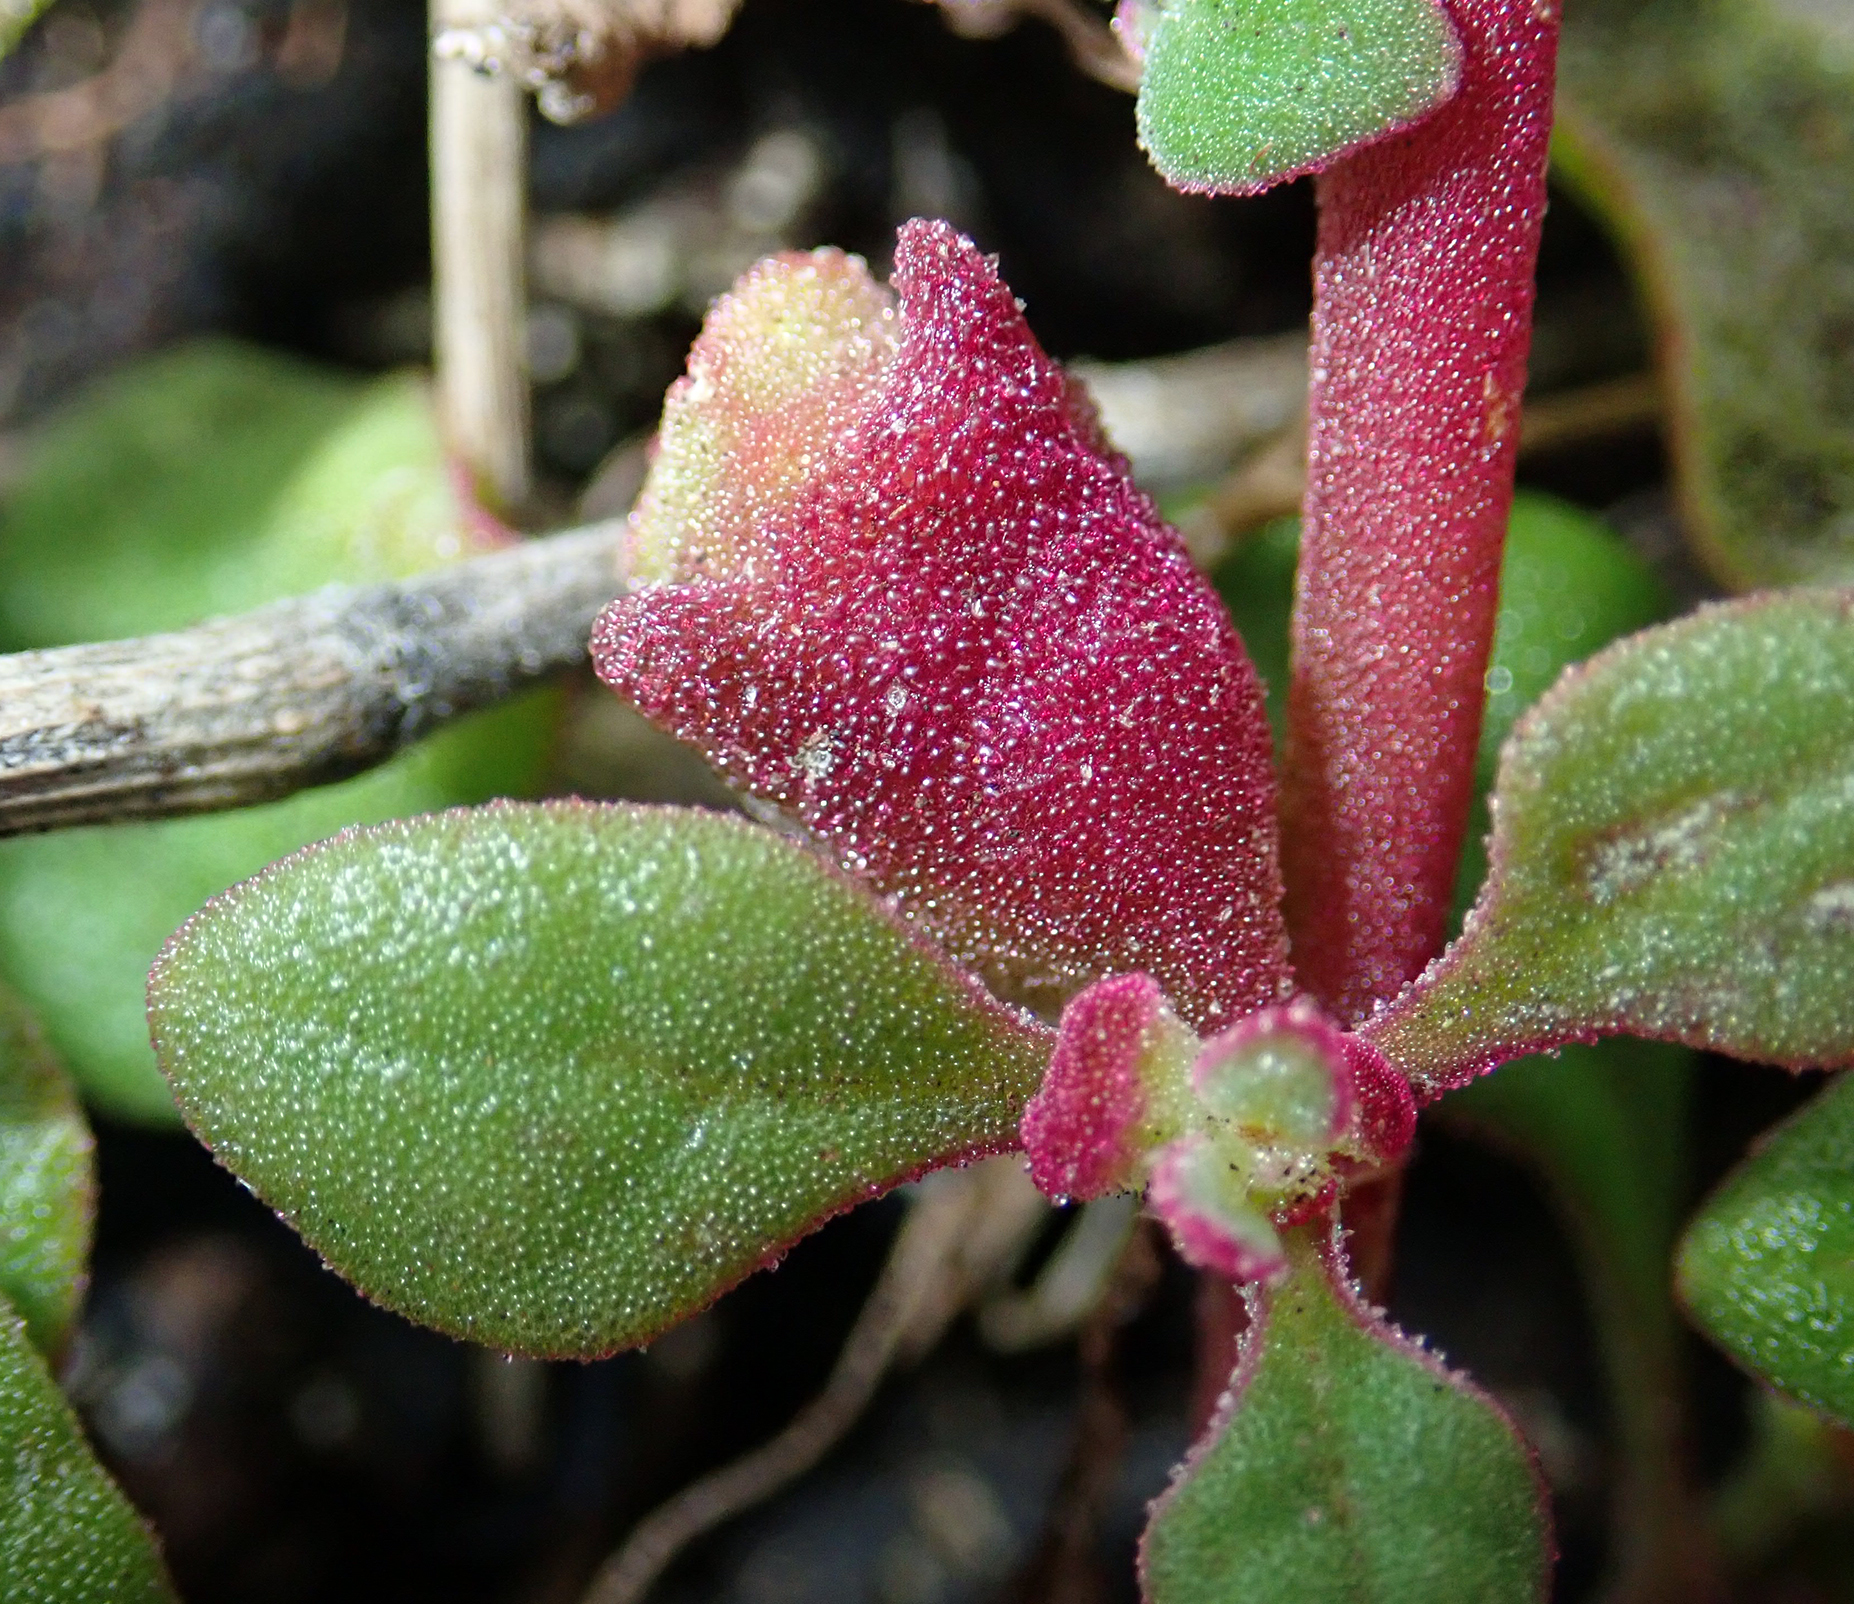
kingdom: Plantae
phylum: Tracheophyta
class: Magnoliopsida
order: Caryophyllales
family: Aizoaceae
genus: Tetragonia
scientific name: Tetragonia tetragonoides
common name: New zealand-spinach
